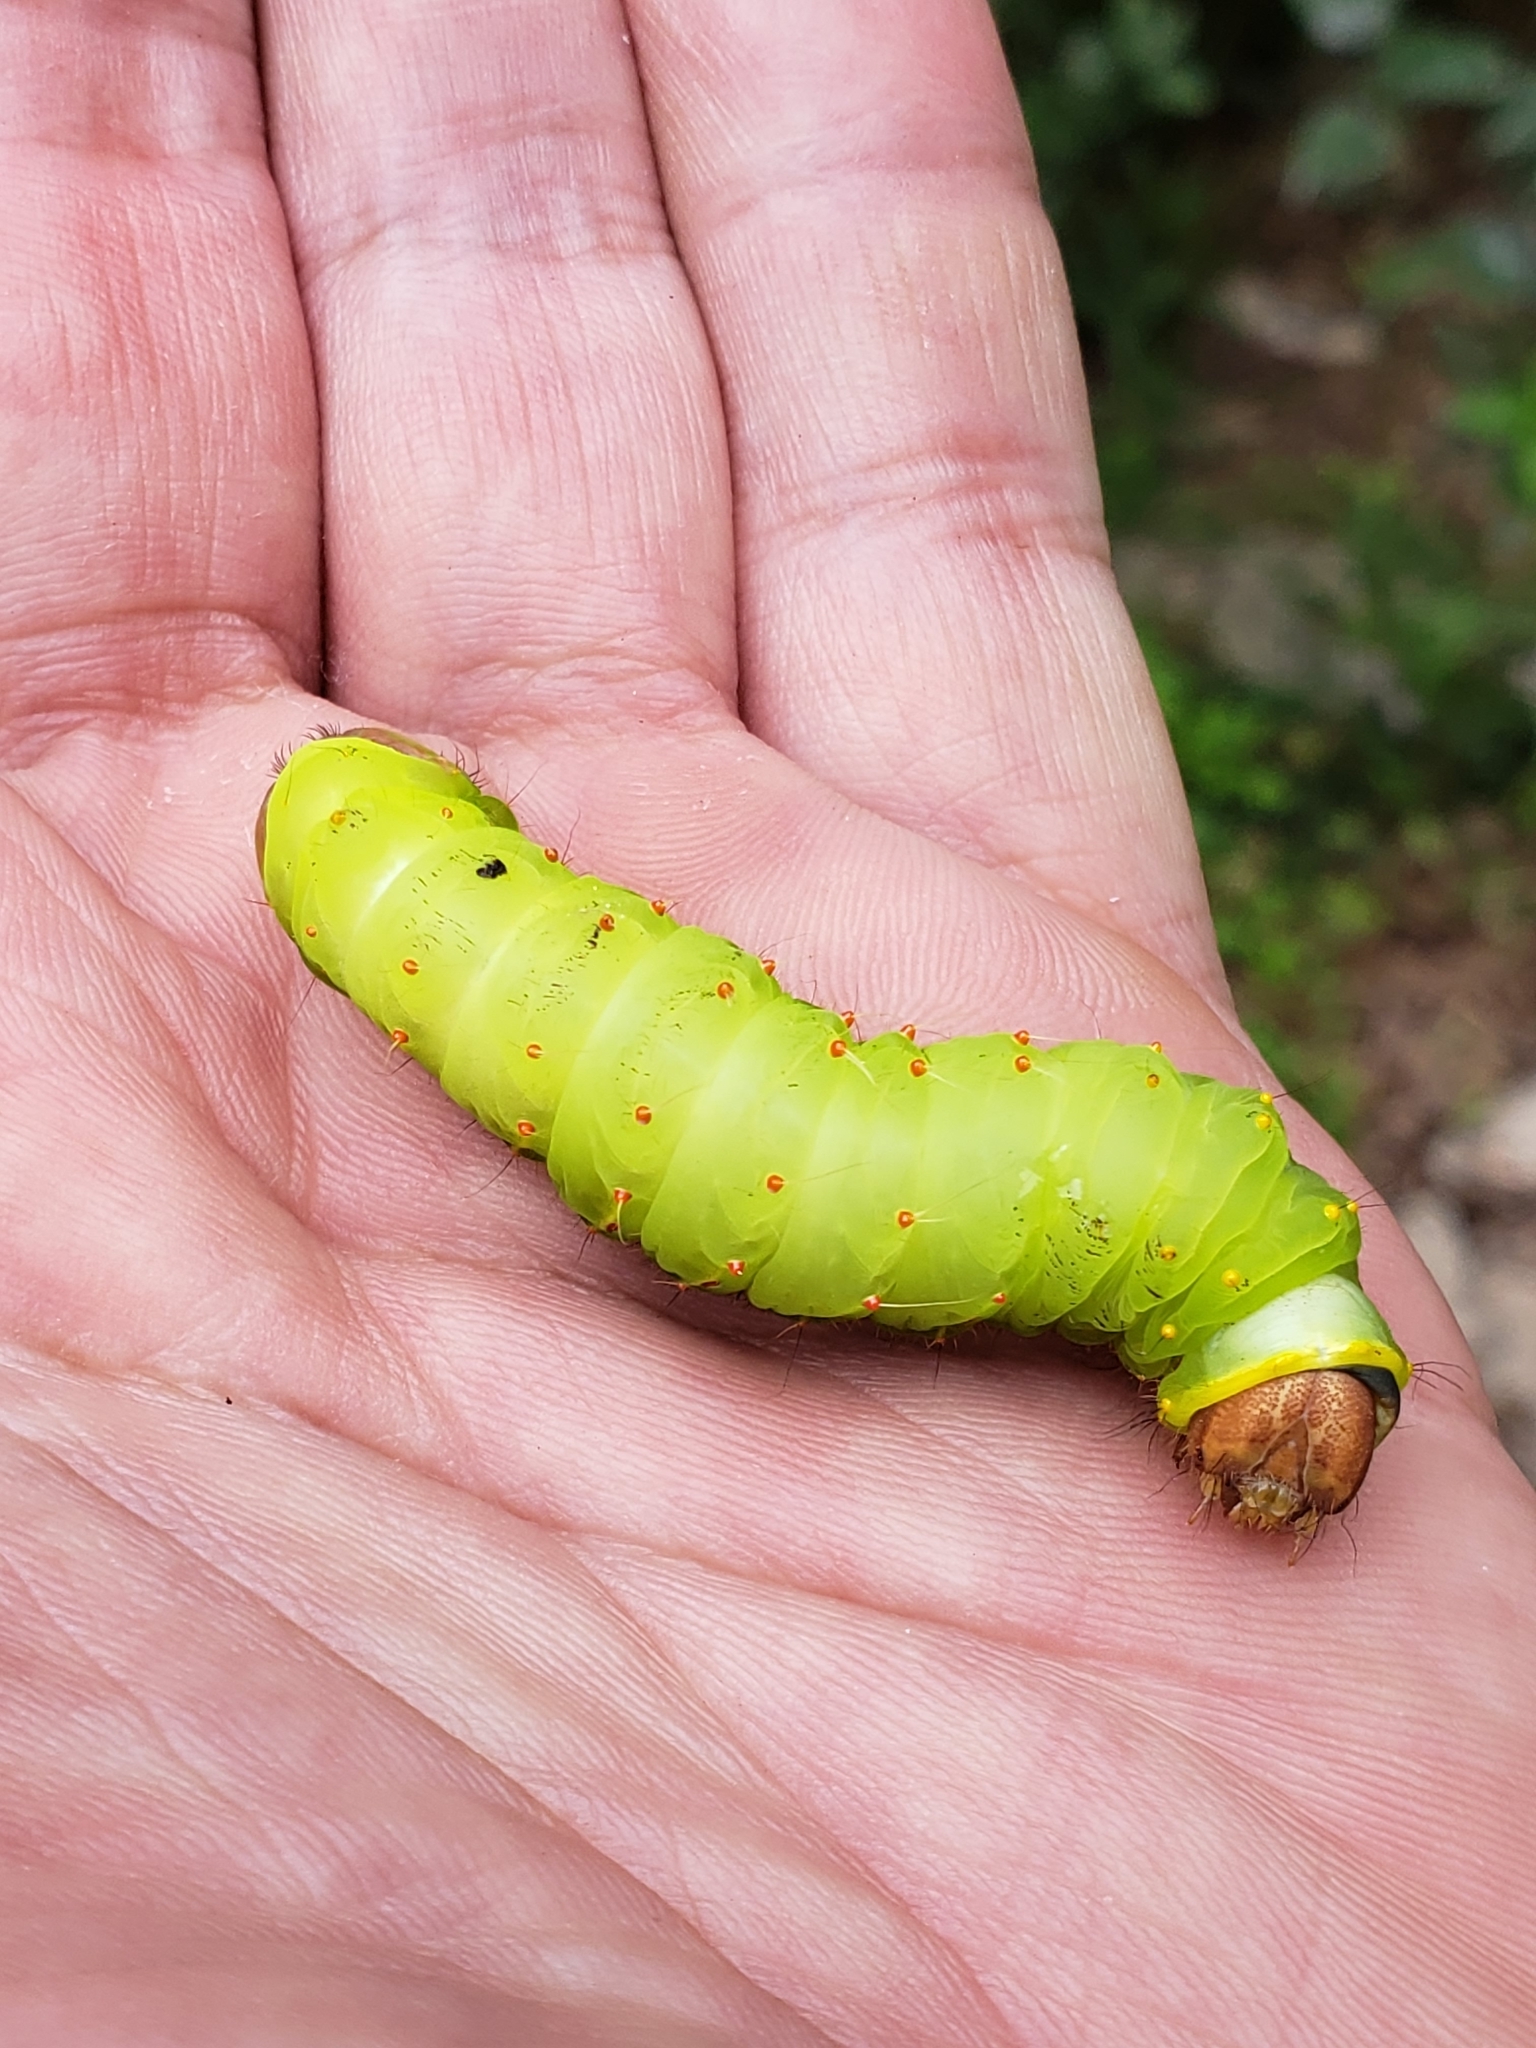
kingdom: Animalia
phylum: Arthropoda
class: Insecta
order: Lepidoptera
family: Saturniidae
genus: Antheraea
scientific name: Antheraea polyphemus
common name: Polyphemus moth
